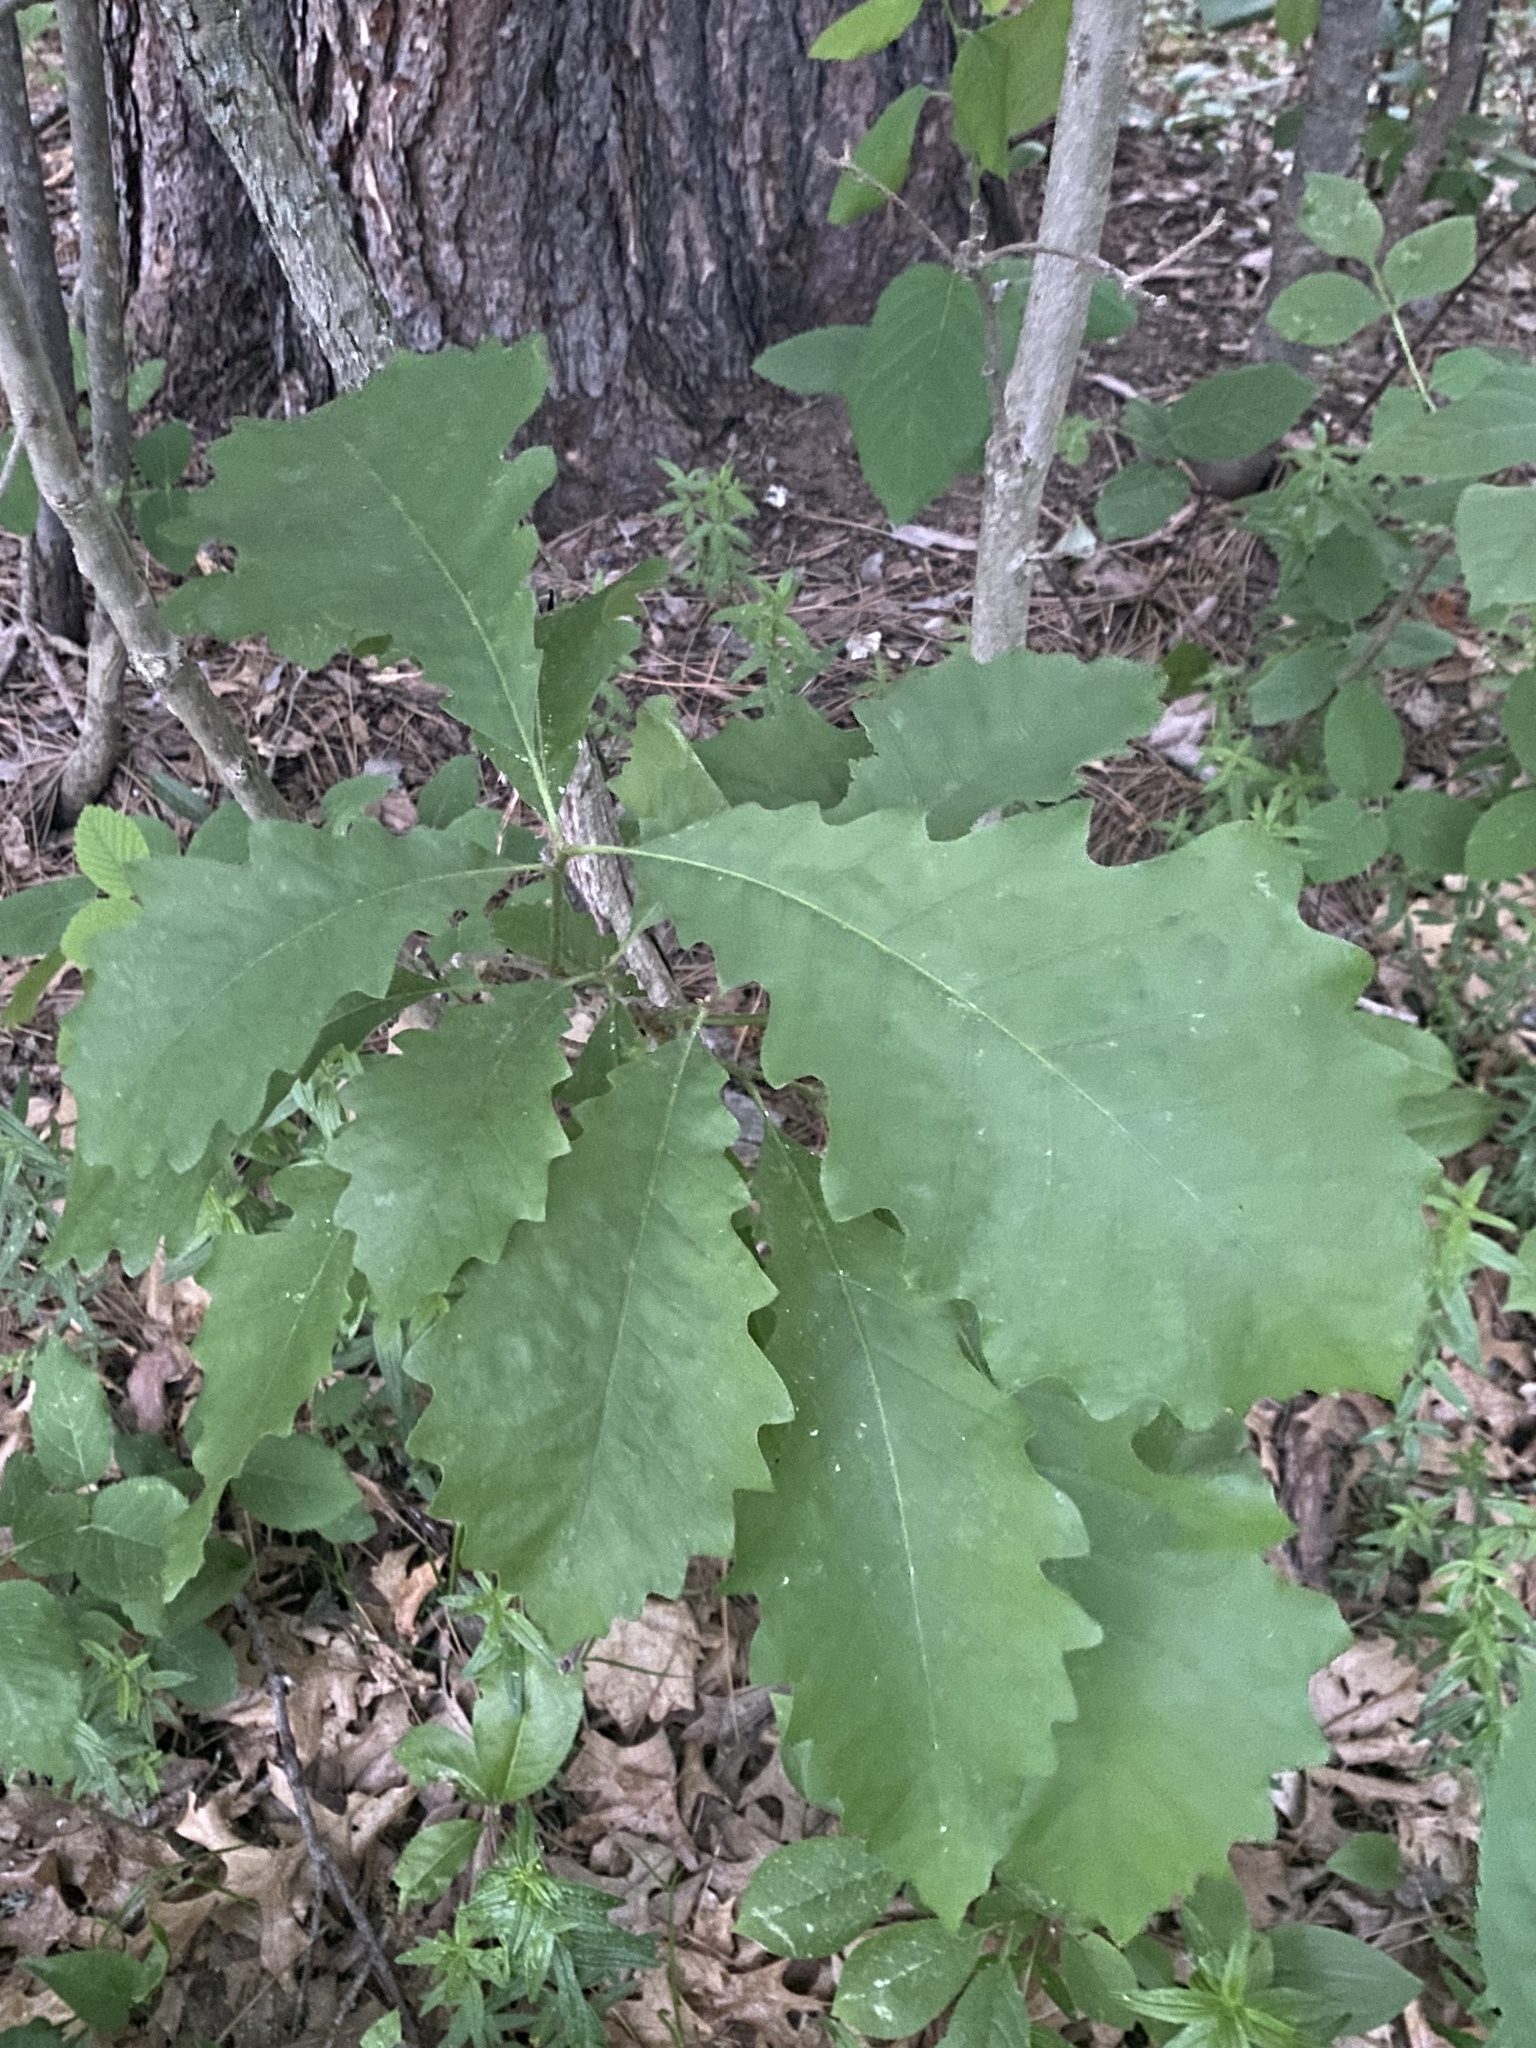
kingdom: Plantae
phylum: Tracheophyta
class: Magnoliopsida
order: Fagales
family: Fagaceae
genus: Quercus
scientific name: Quercus macrocarpa
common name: Bur oak
